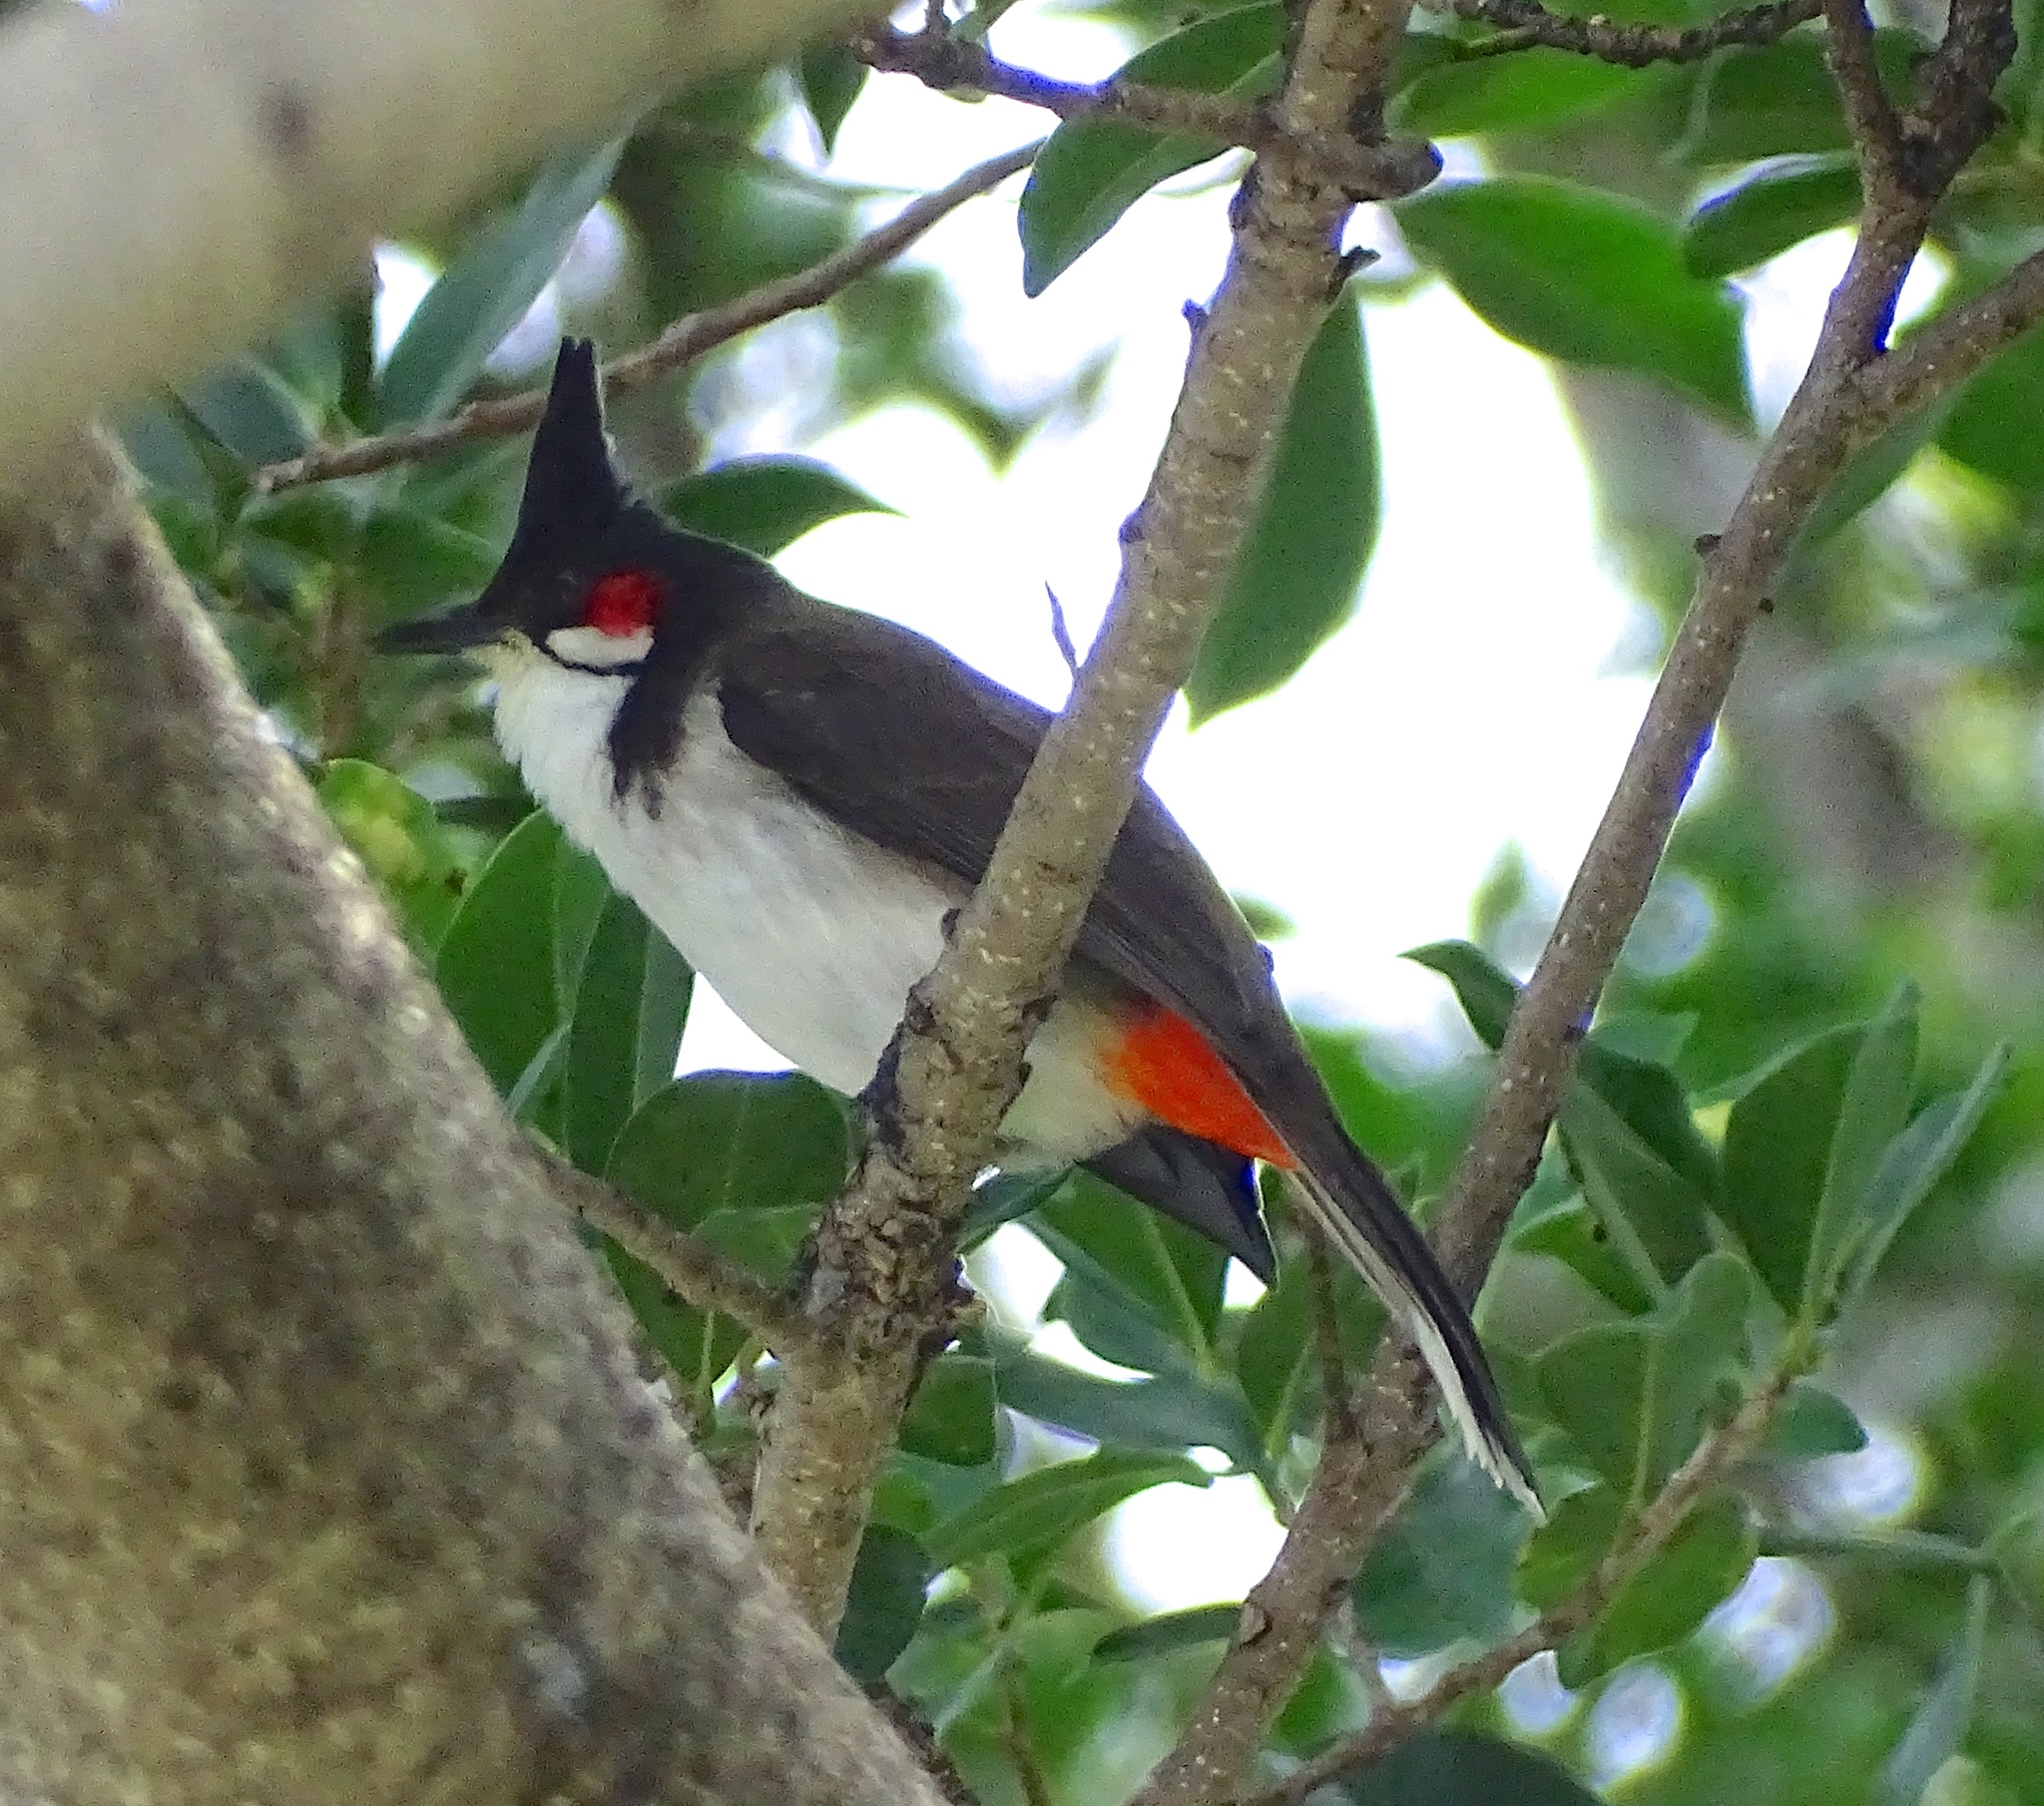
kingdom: Animalia
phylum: Chordata
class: Aves
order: Passeriformes
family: Pycnonotidae
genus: Pycnonotus
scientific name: Pycnonotus jocosus
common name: Red-whiskered bulbul
